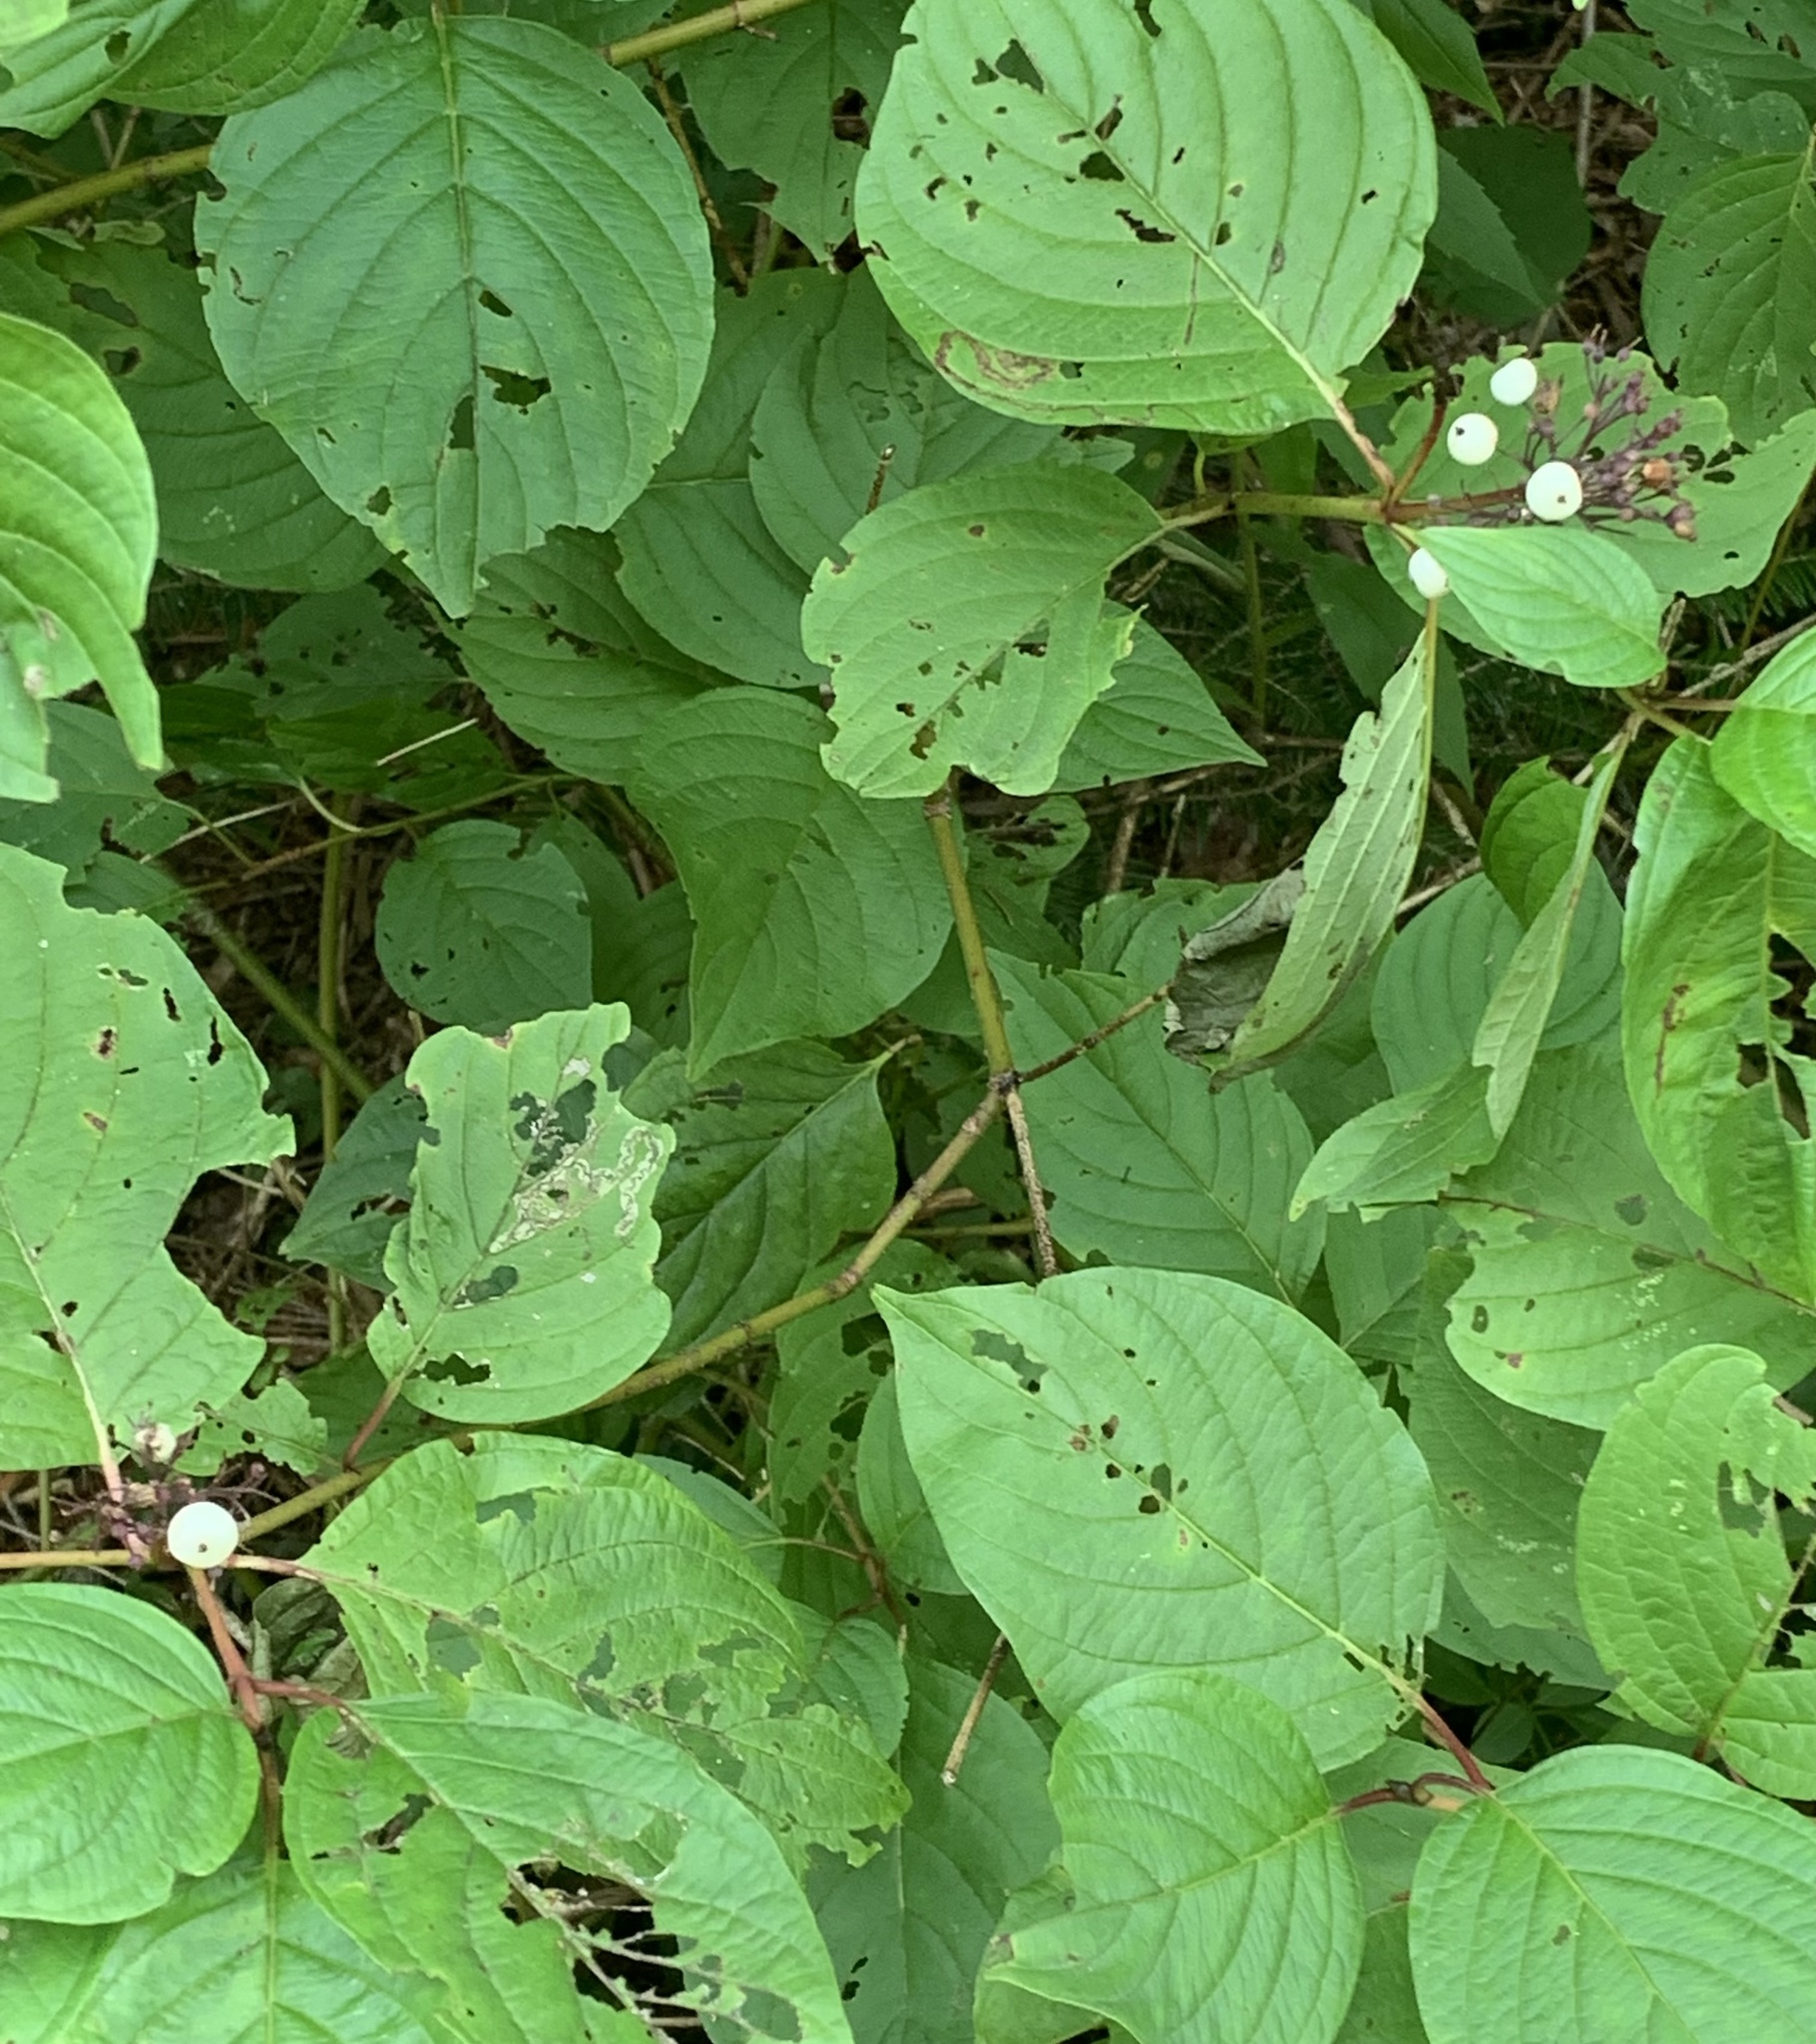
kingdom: Plantae
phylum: Tracheophyta
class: Magnoliopsida
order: Cornales
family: Cornaceae
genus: Cornus
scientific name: Cornus sericea
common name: Red-osier dogwood
